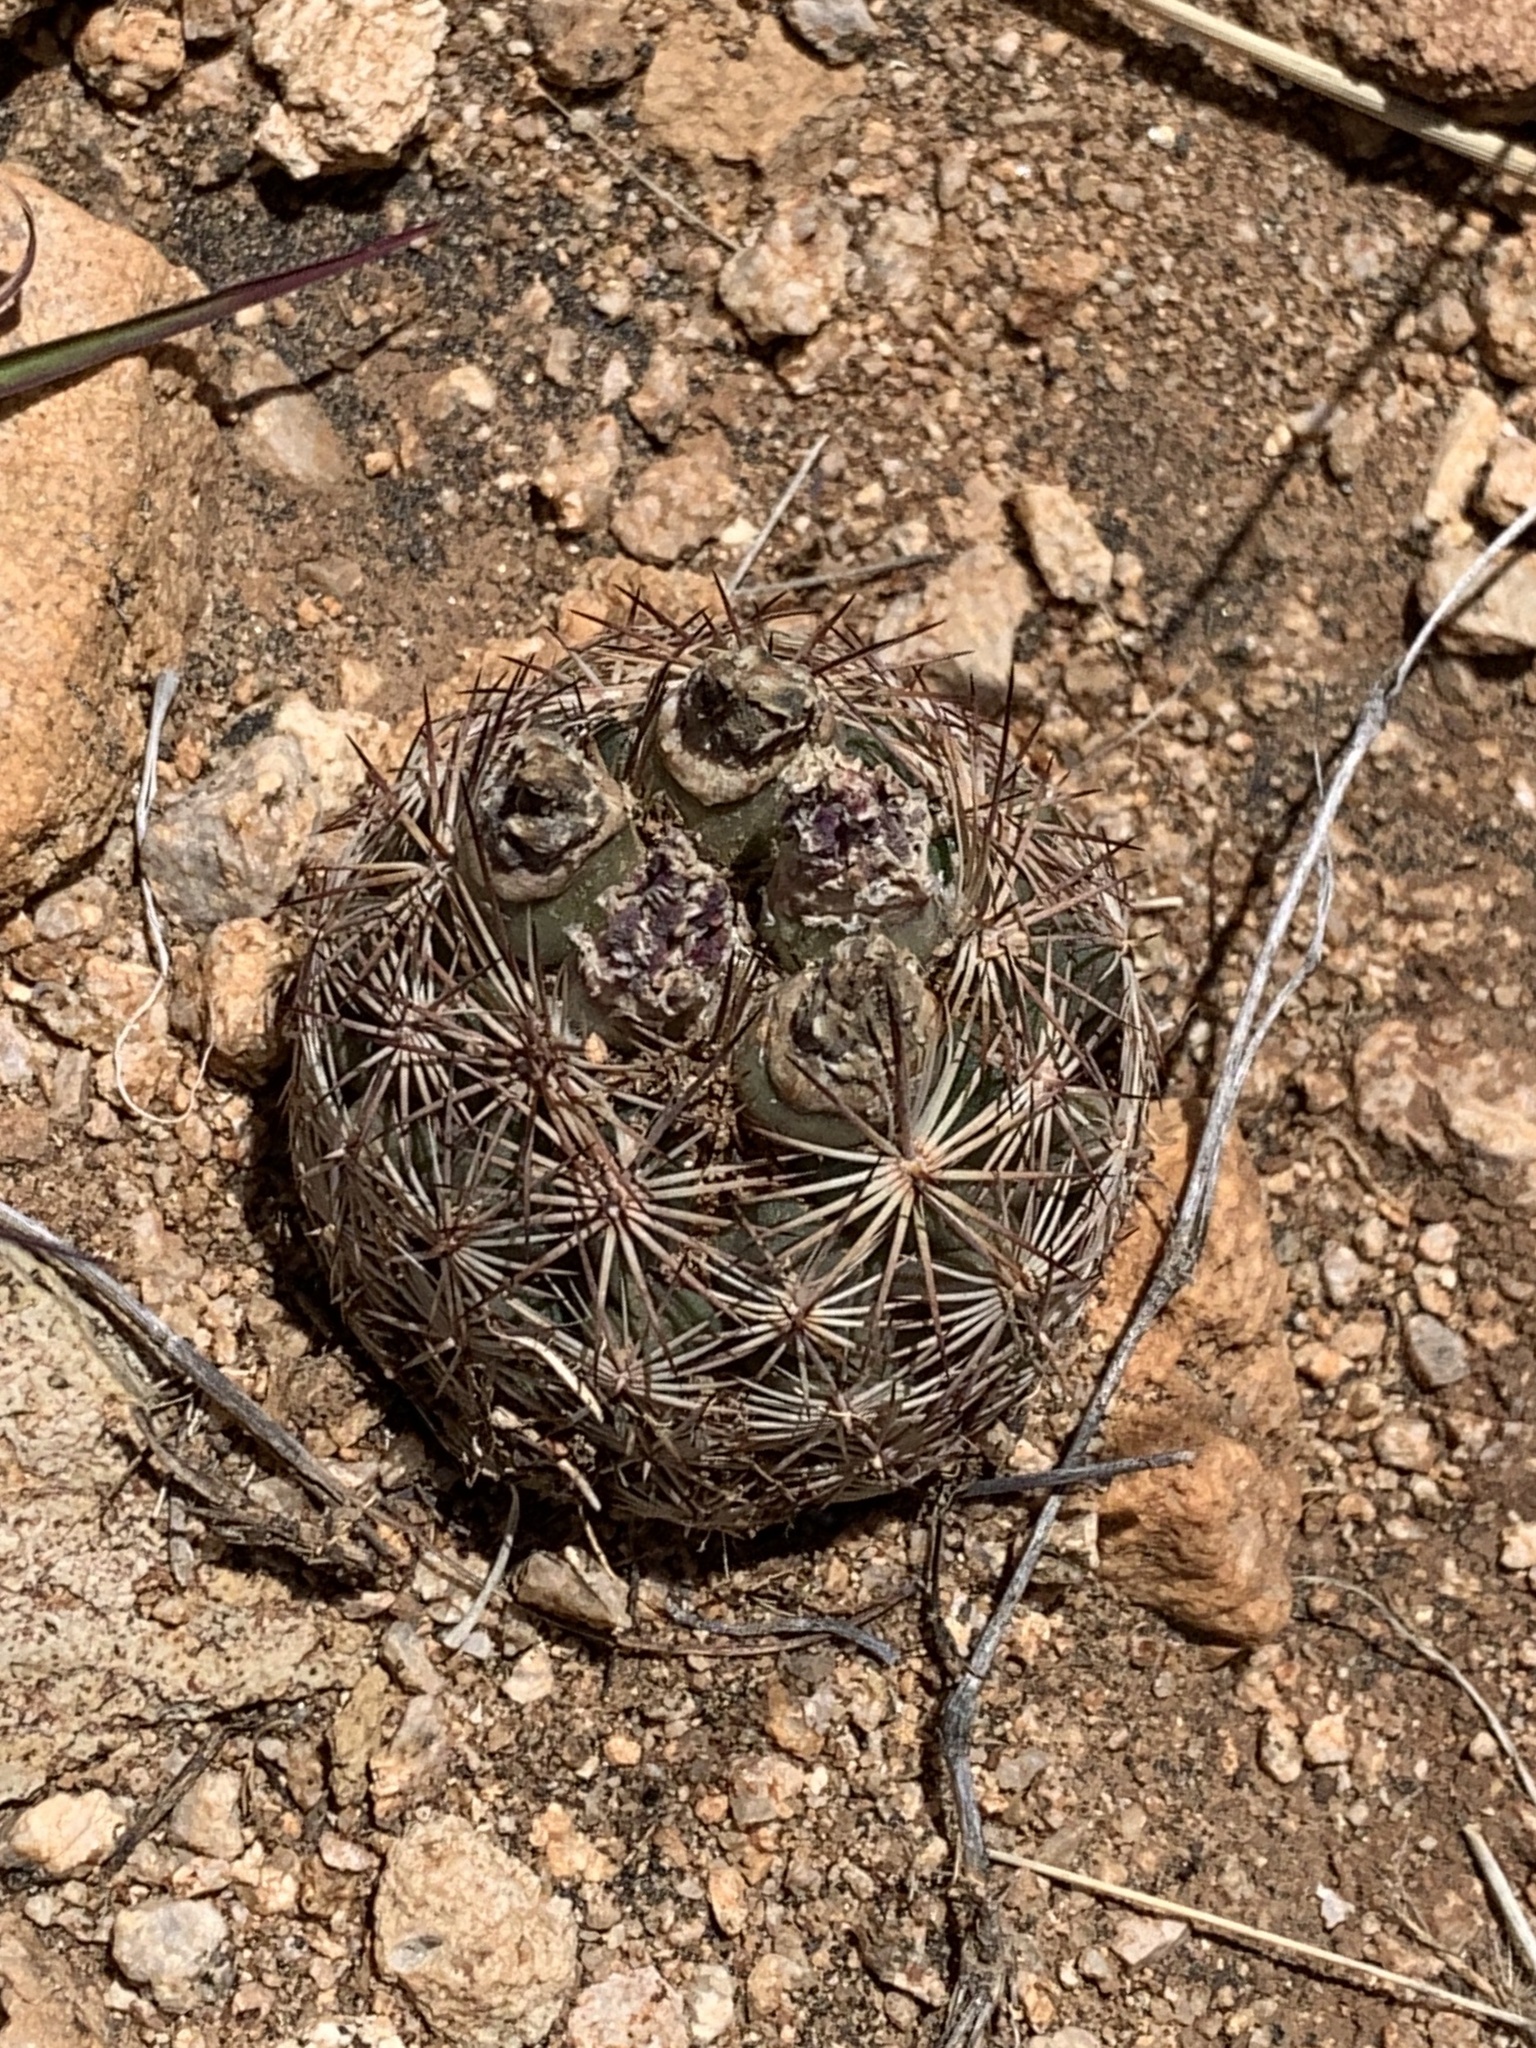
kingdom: Plantae
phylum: Tracheophyta
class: Magnoliopsida
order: Caryophyllales
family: Cactaceae
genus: Sclerocactus
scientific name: Sclerocactus intertextus
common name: White fish-hook cactus
